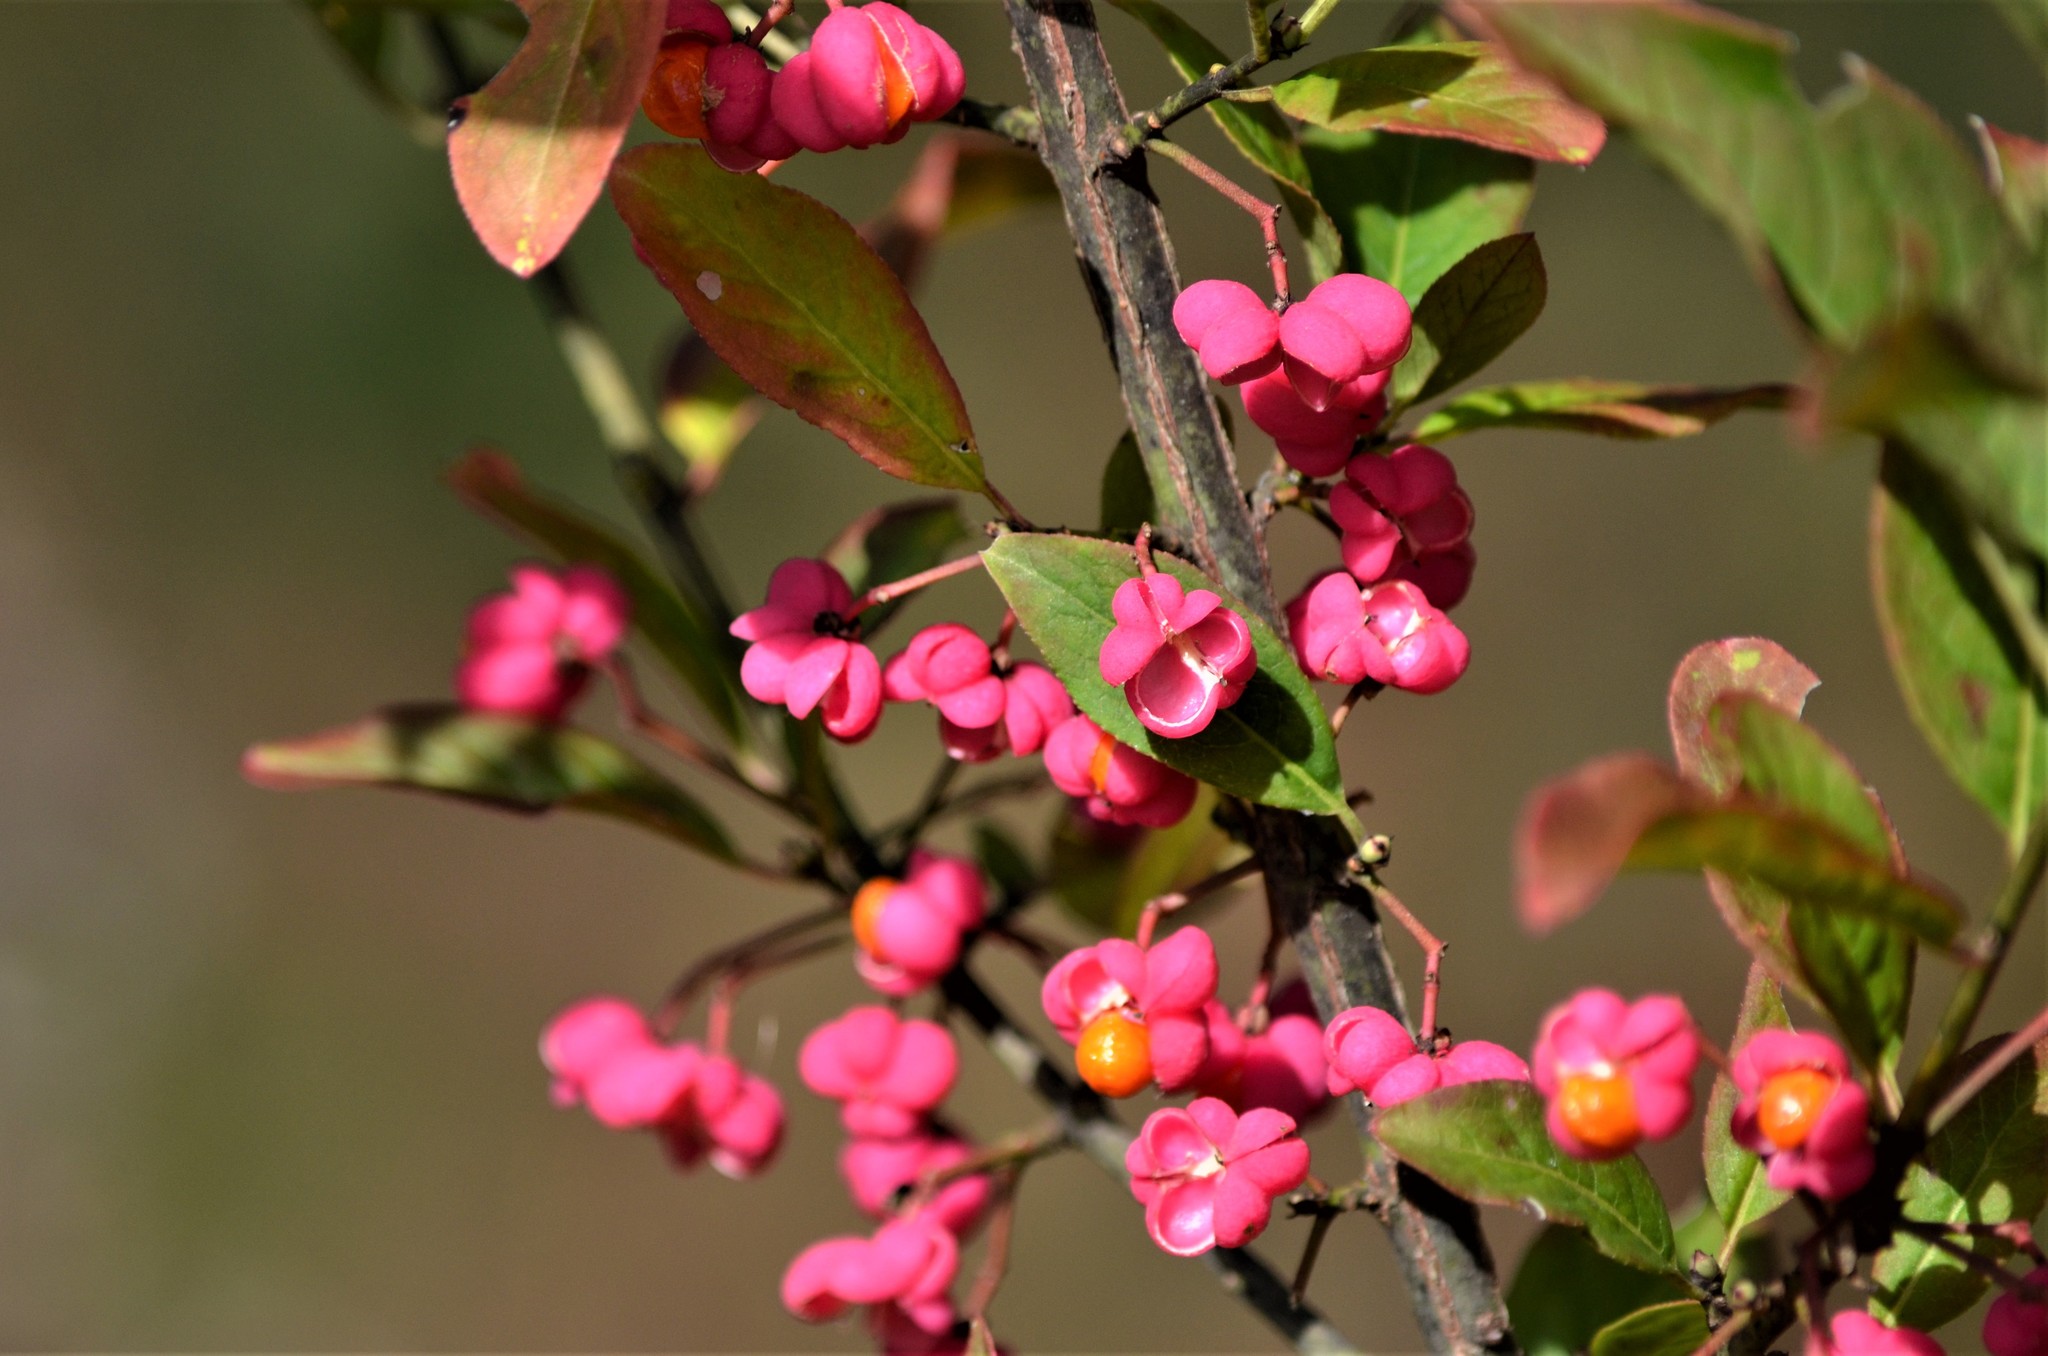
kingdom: Plantae
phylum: Tracheophyta
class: Magnoliopsida
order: Celastrales
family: Celastraceae
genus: Euonymus
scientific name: Euonymus europaeus
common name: Spindle
